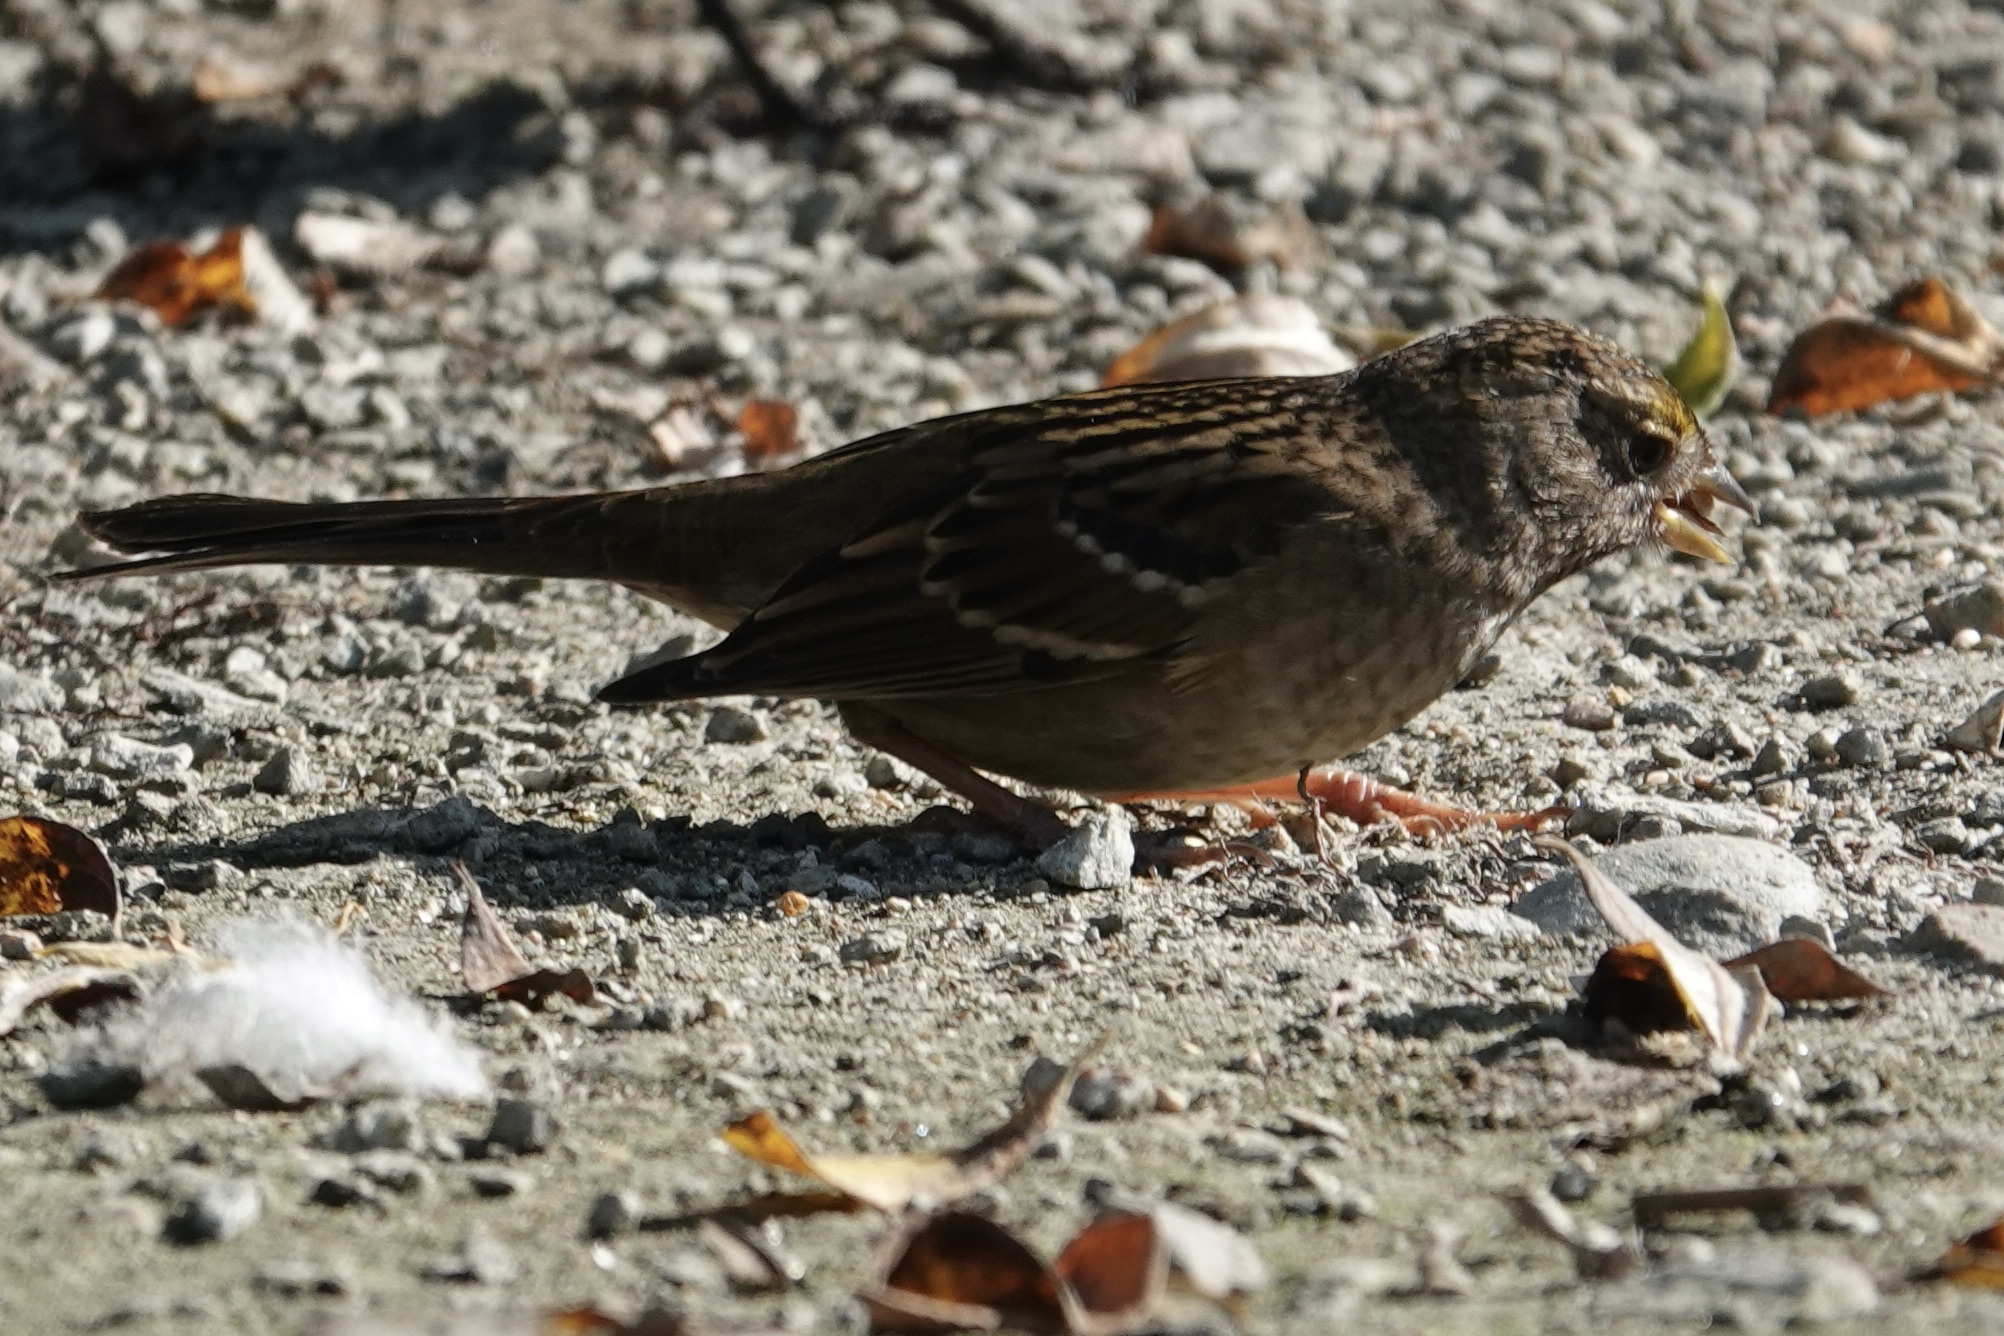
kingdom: Animalia
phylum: Chordata
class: Aves
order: Passeriformes
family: Passerellidae
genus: Zonotrichia
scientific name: Zonotrichia atricapilla
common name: Golden-crowned sparrow
